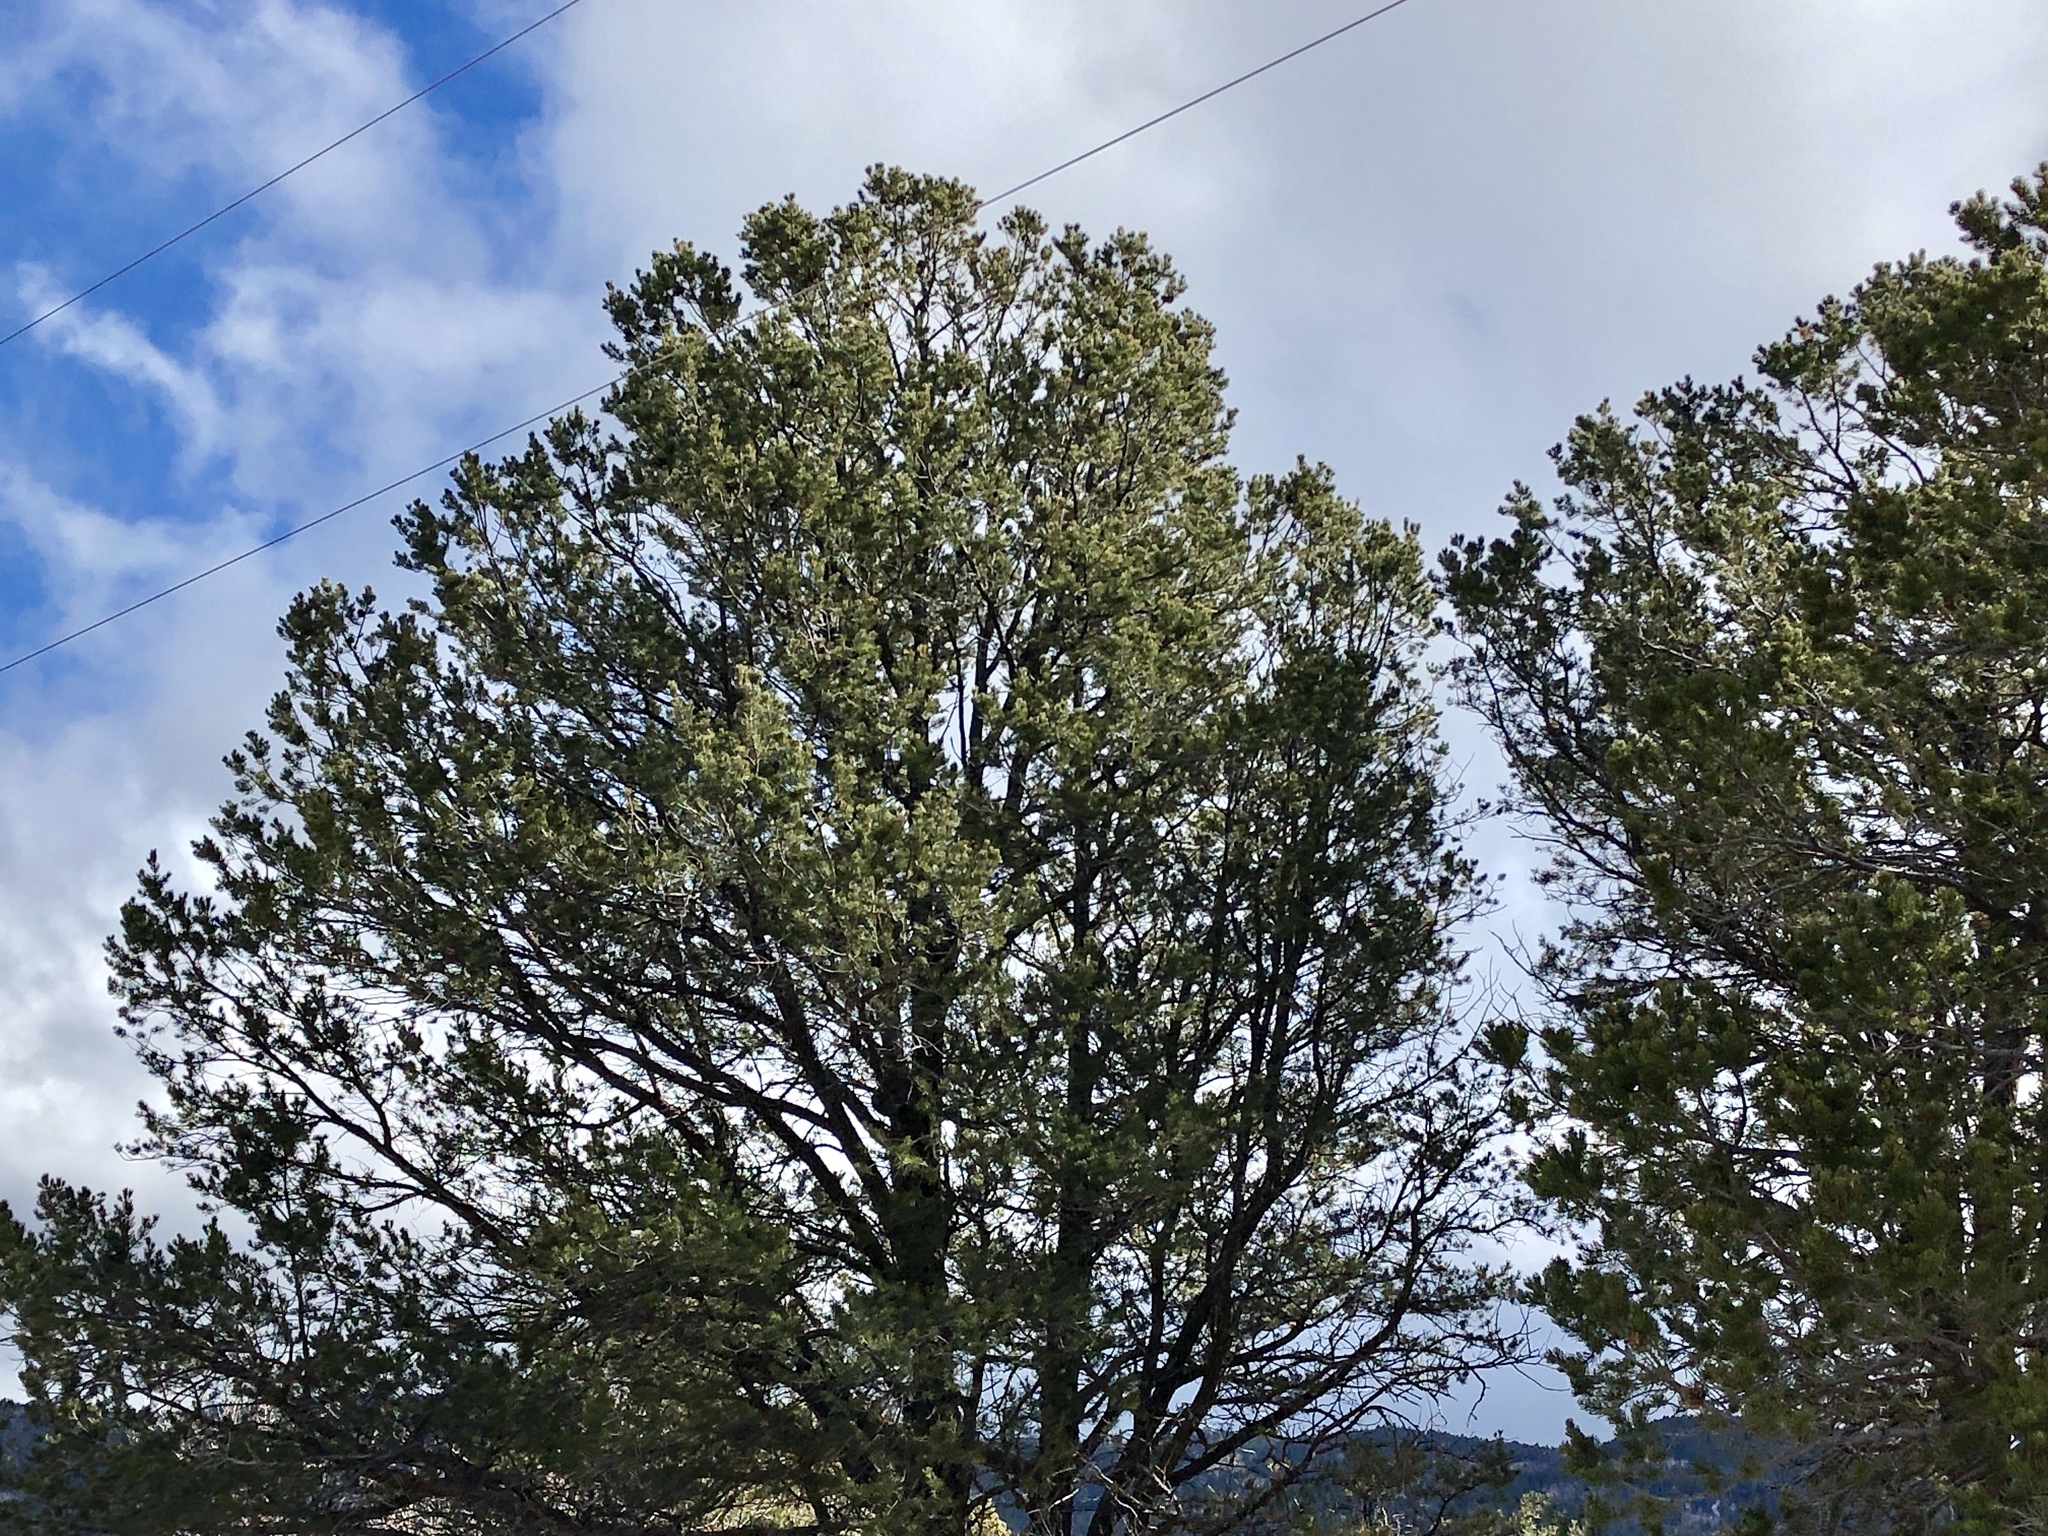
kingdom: Plantae
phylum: Tracheophyta
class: Pinopsida
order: Pinales
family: Pinaceae
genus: Pinus
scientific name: Pinus edulis
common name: Colorado pinyon
